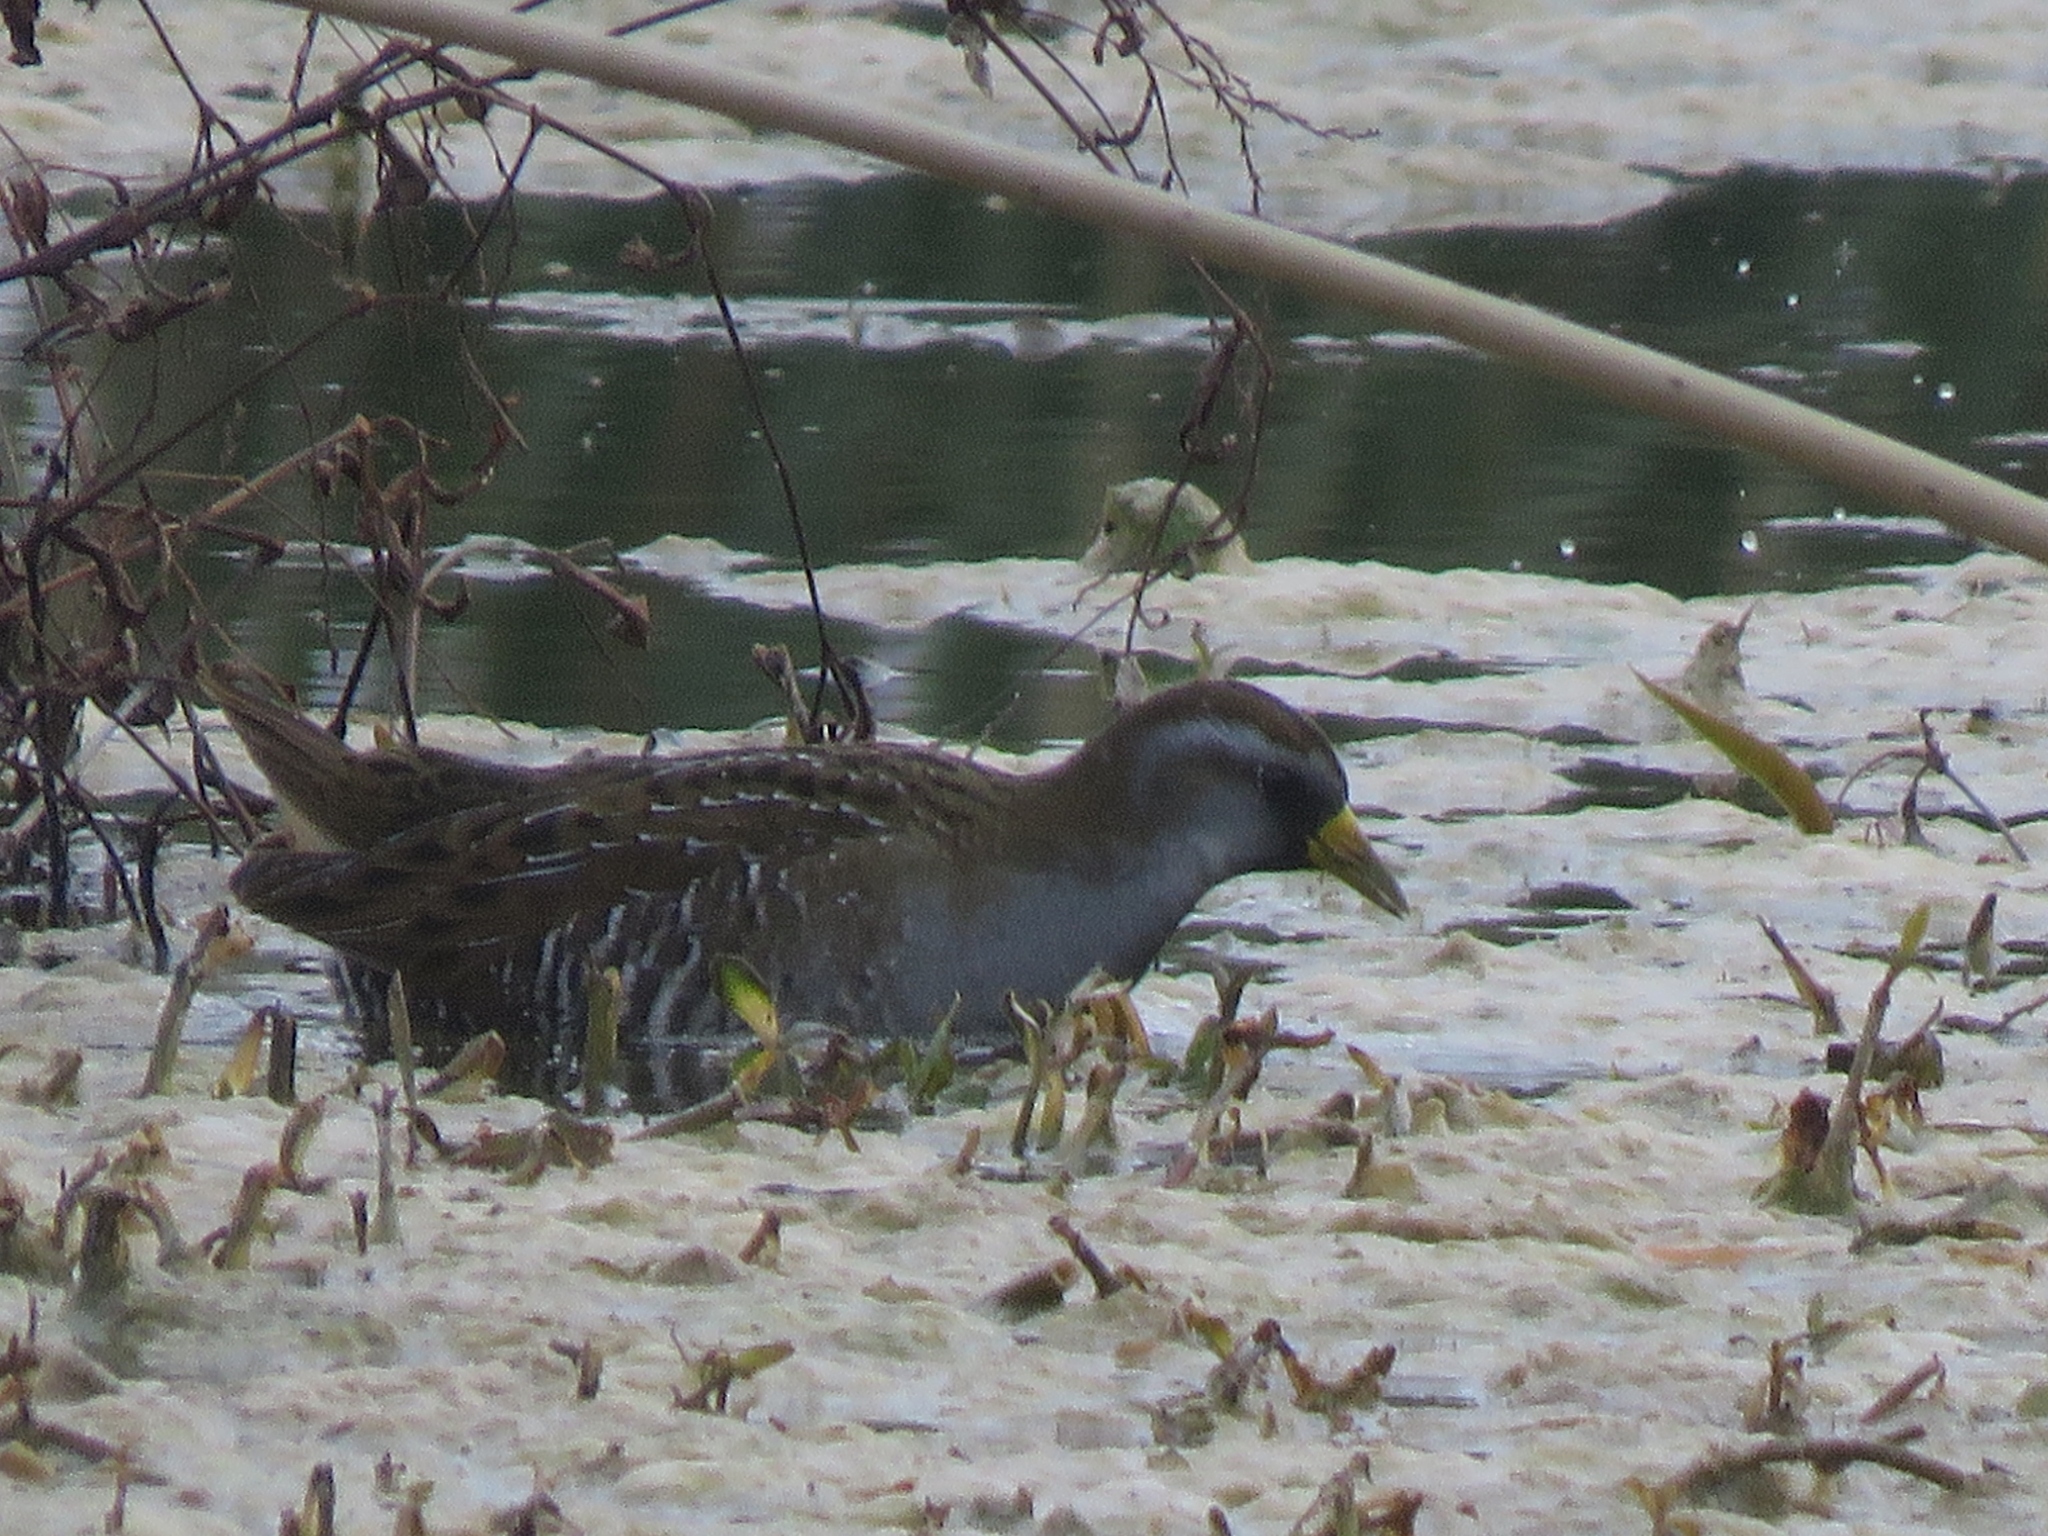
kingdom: Animalia
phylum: Chordata
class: Aves
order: Gruiformes
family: Rallidae
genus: Porzana
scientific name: Porzana carolina
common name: Sora
